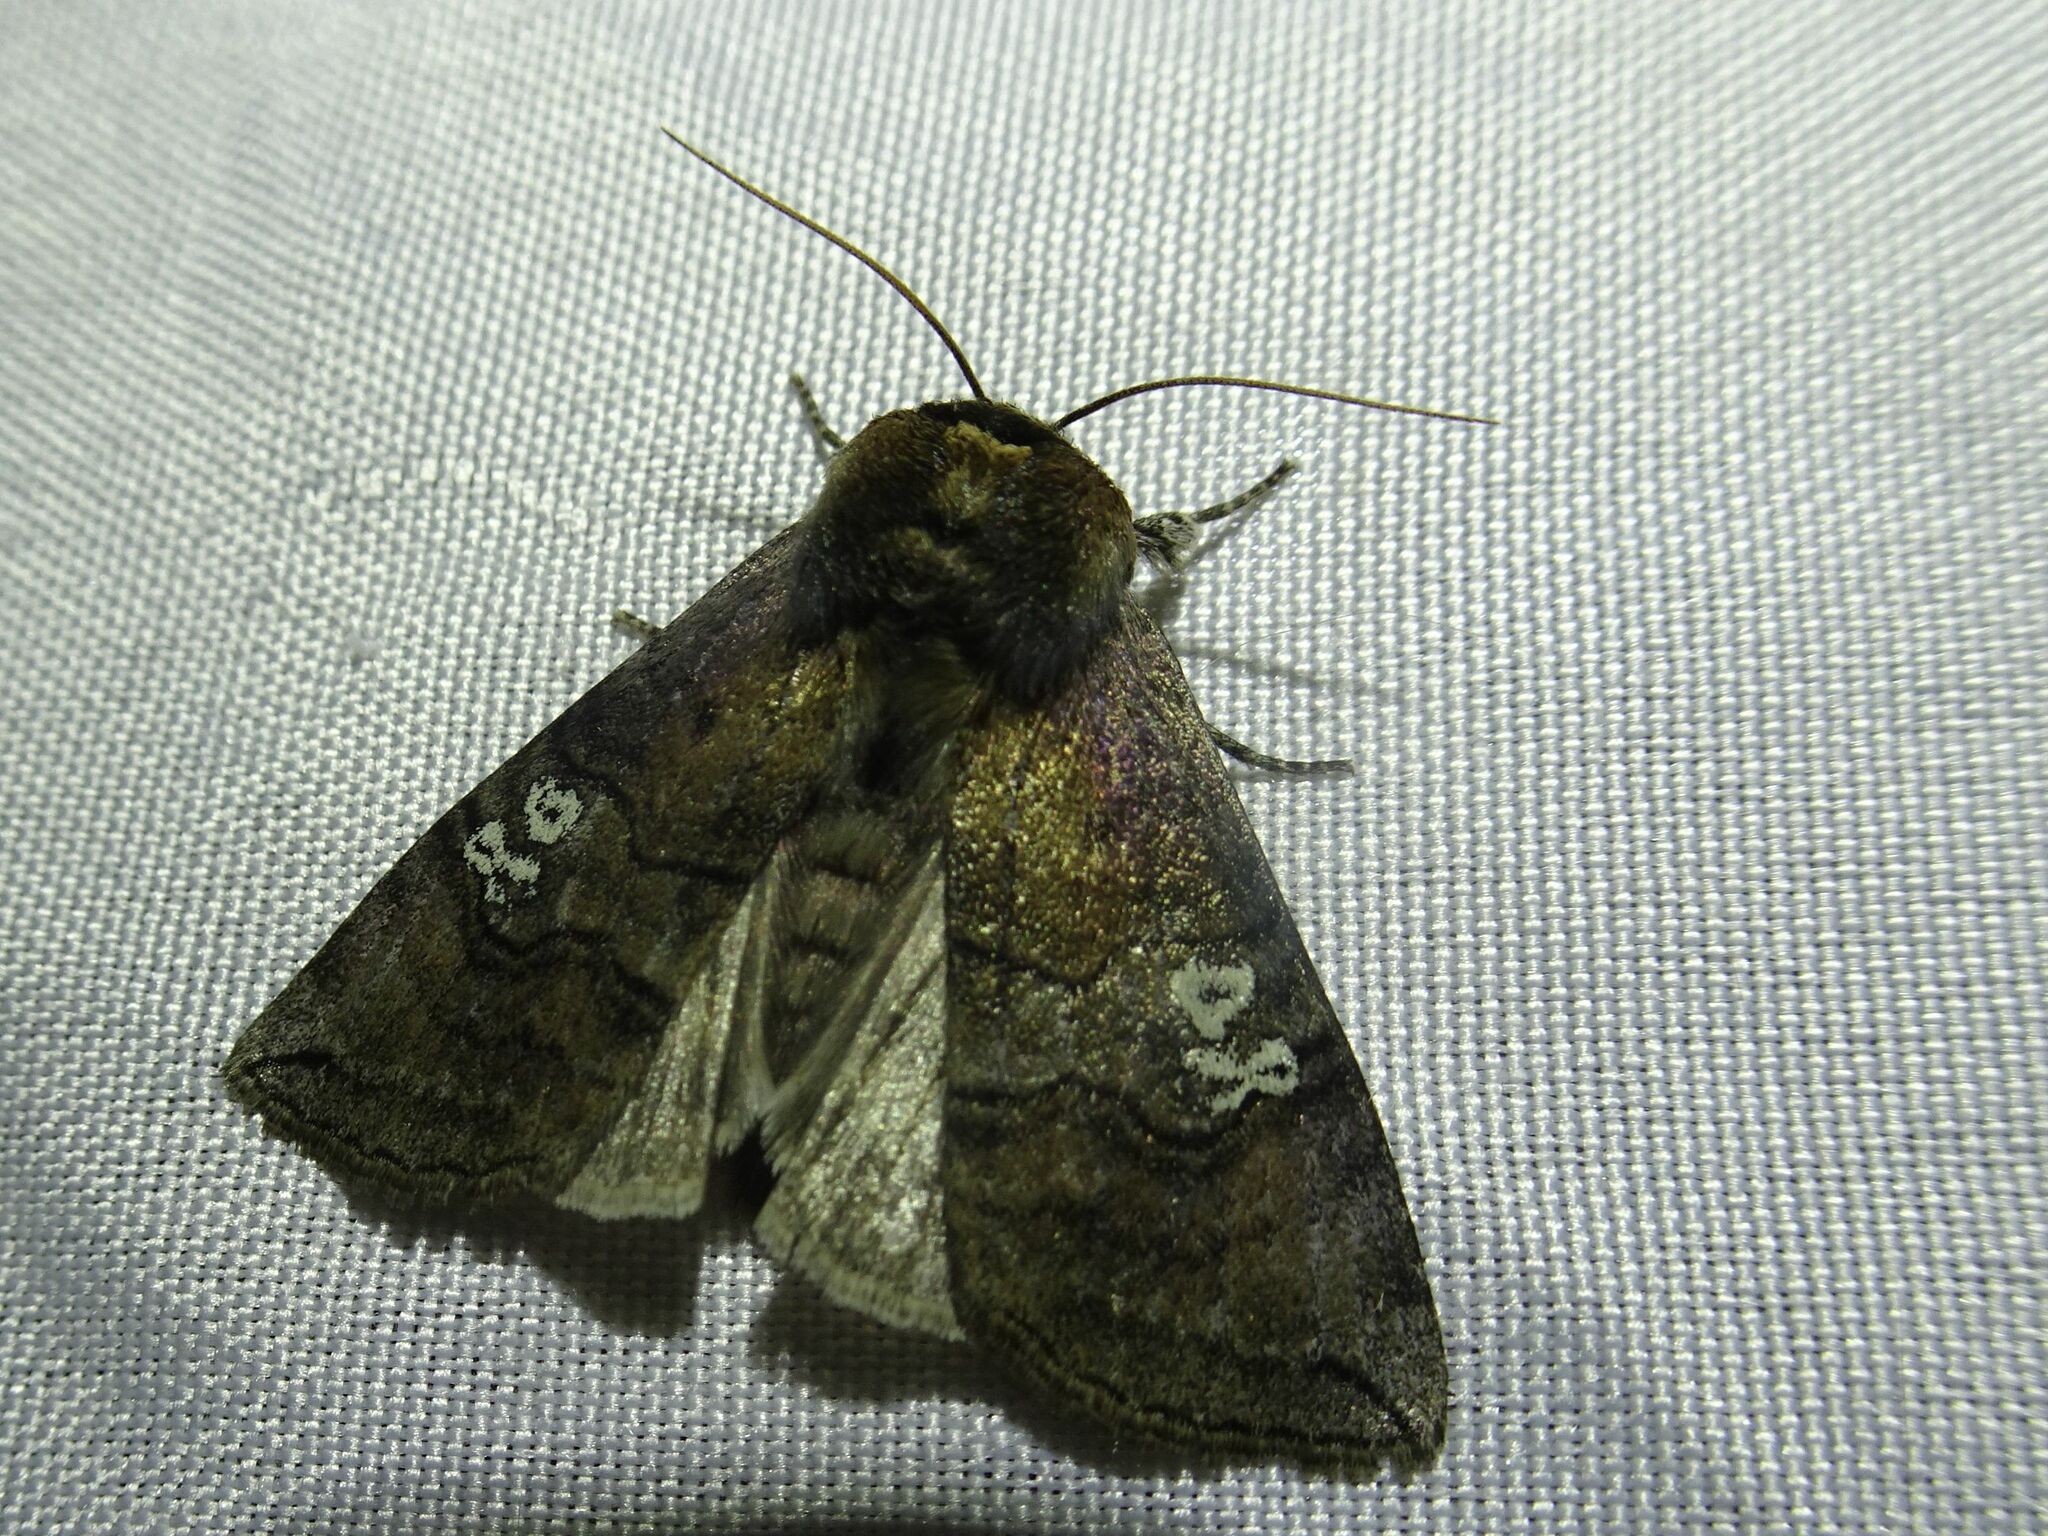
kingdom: Animalia
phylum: Arthropoda
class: Insecta
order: Lepidoptera
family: Drepanidae
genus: Tethea
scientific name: Tethea ocularis
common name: Figure of eighty
